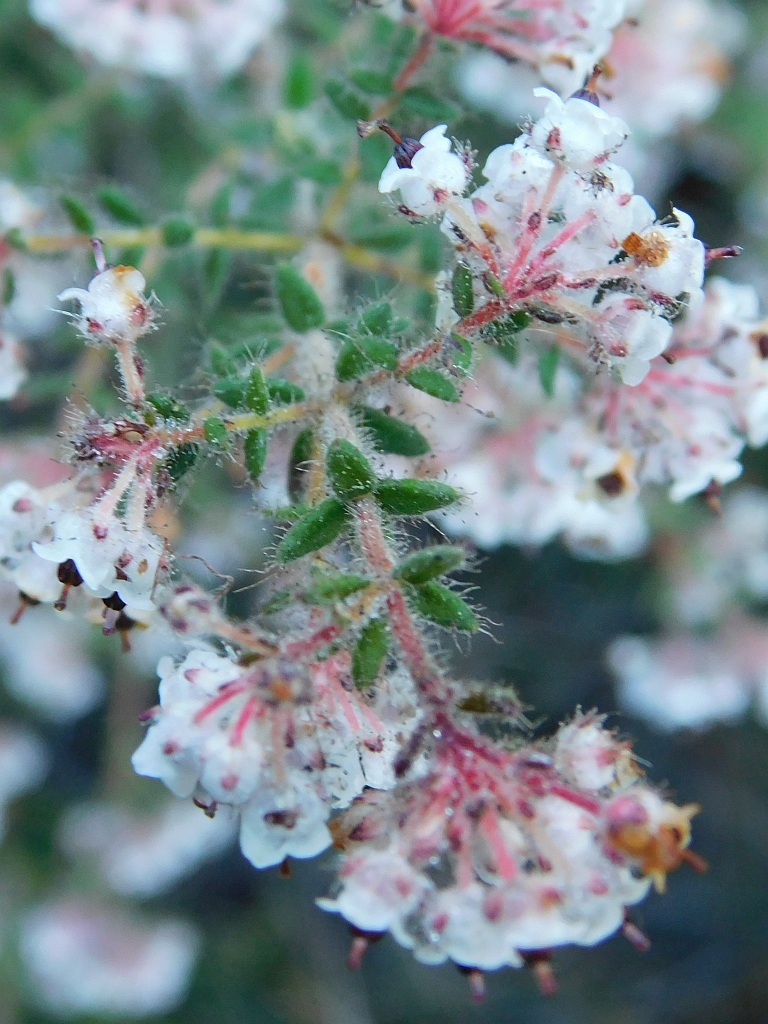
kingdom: Plantae
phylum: Tracheophyta
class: Magnoliopsida
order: Ericales
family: Ericaceae
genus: Erica
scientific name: Erica perlata
